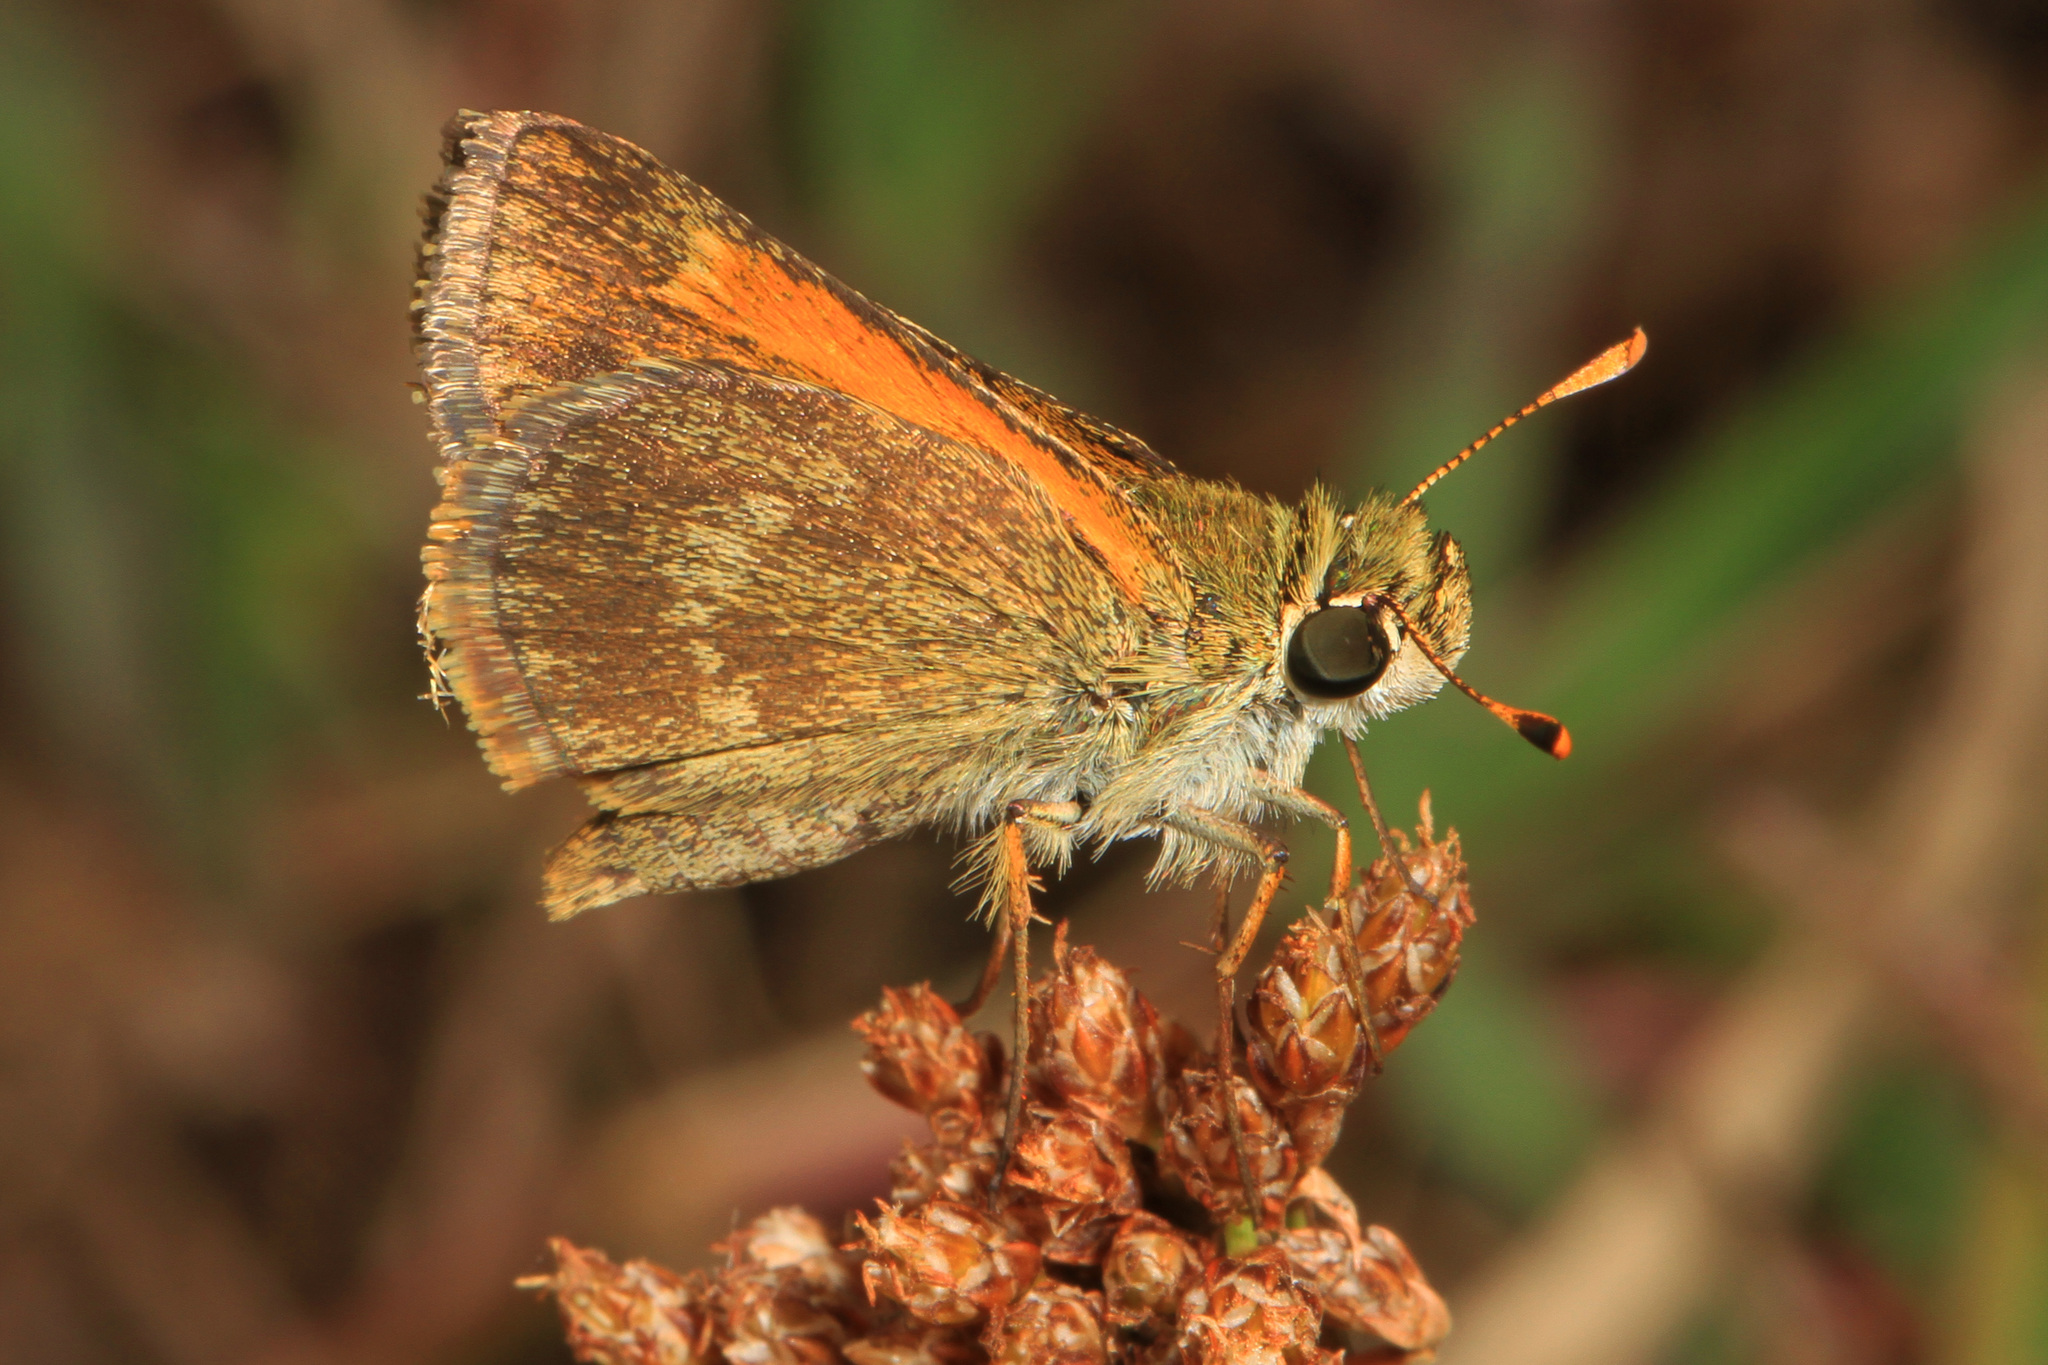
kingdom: Animalia
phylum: Arthropoda
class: Insecta
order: Lepidoptera
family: Hesperiidae
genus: Polites
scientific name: Polites baracoa
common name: Baracoa skipper
